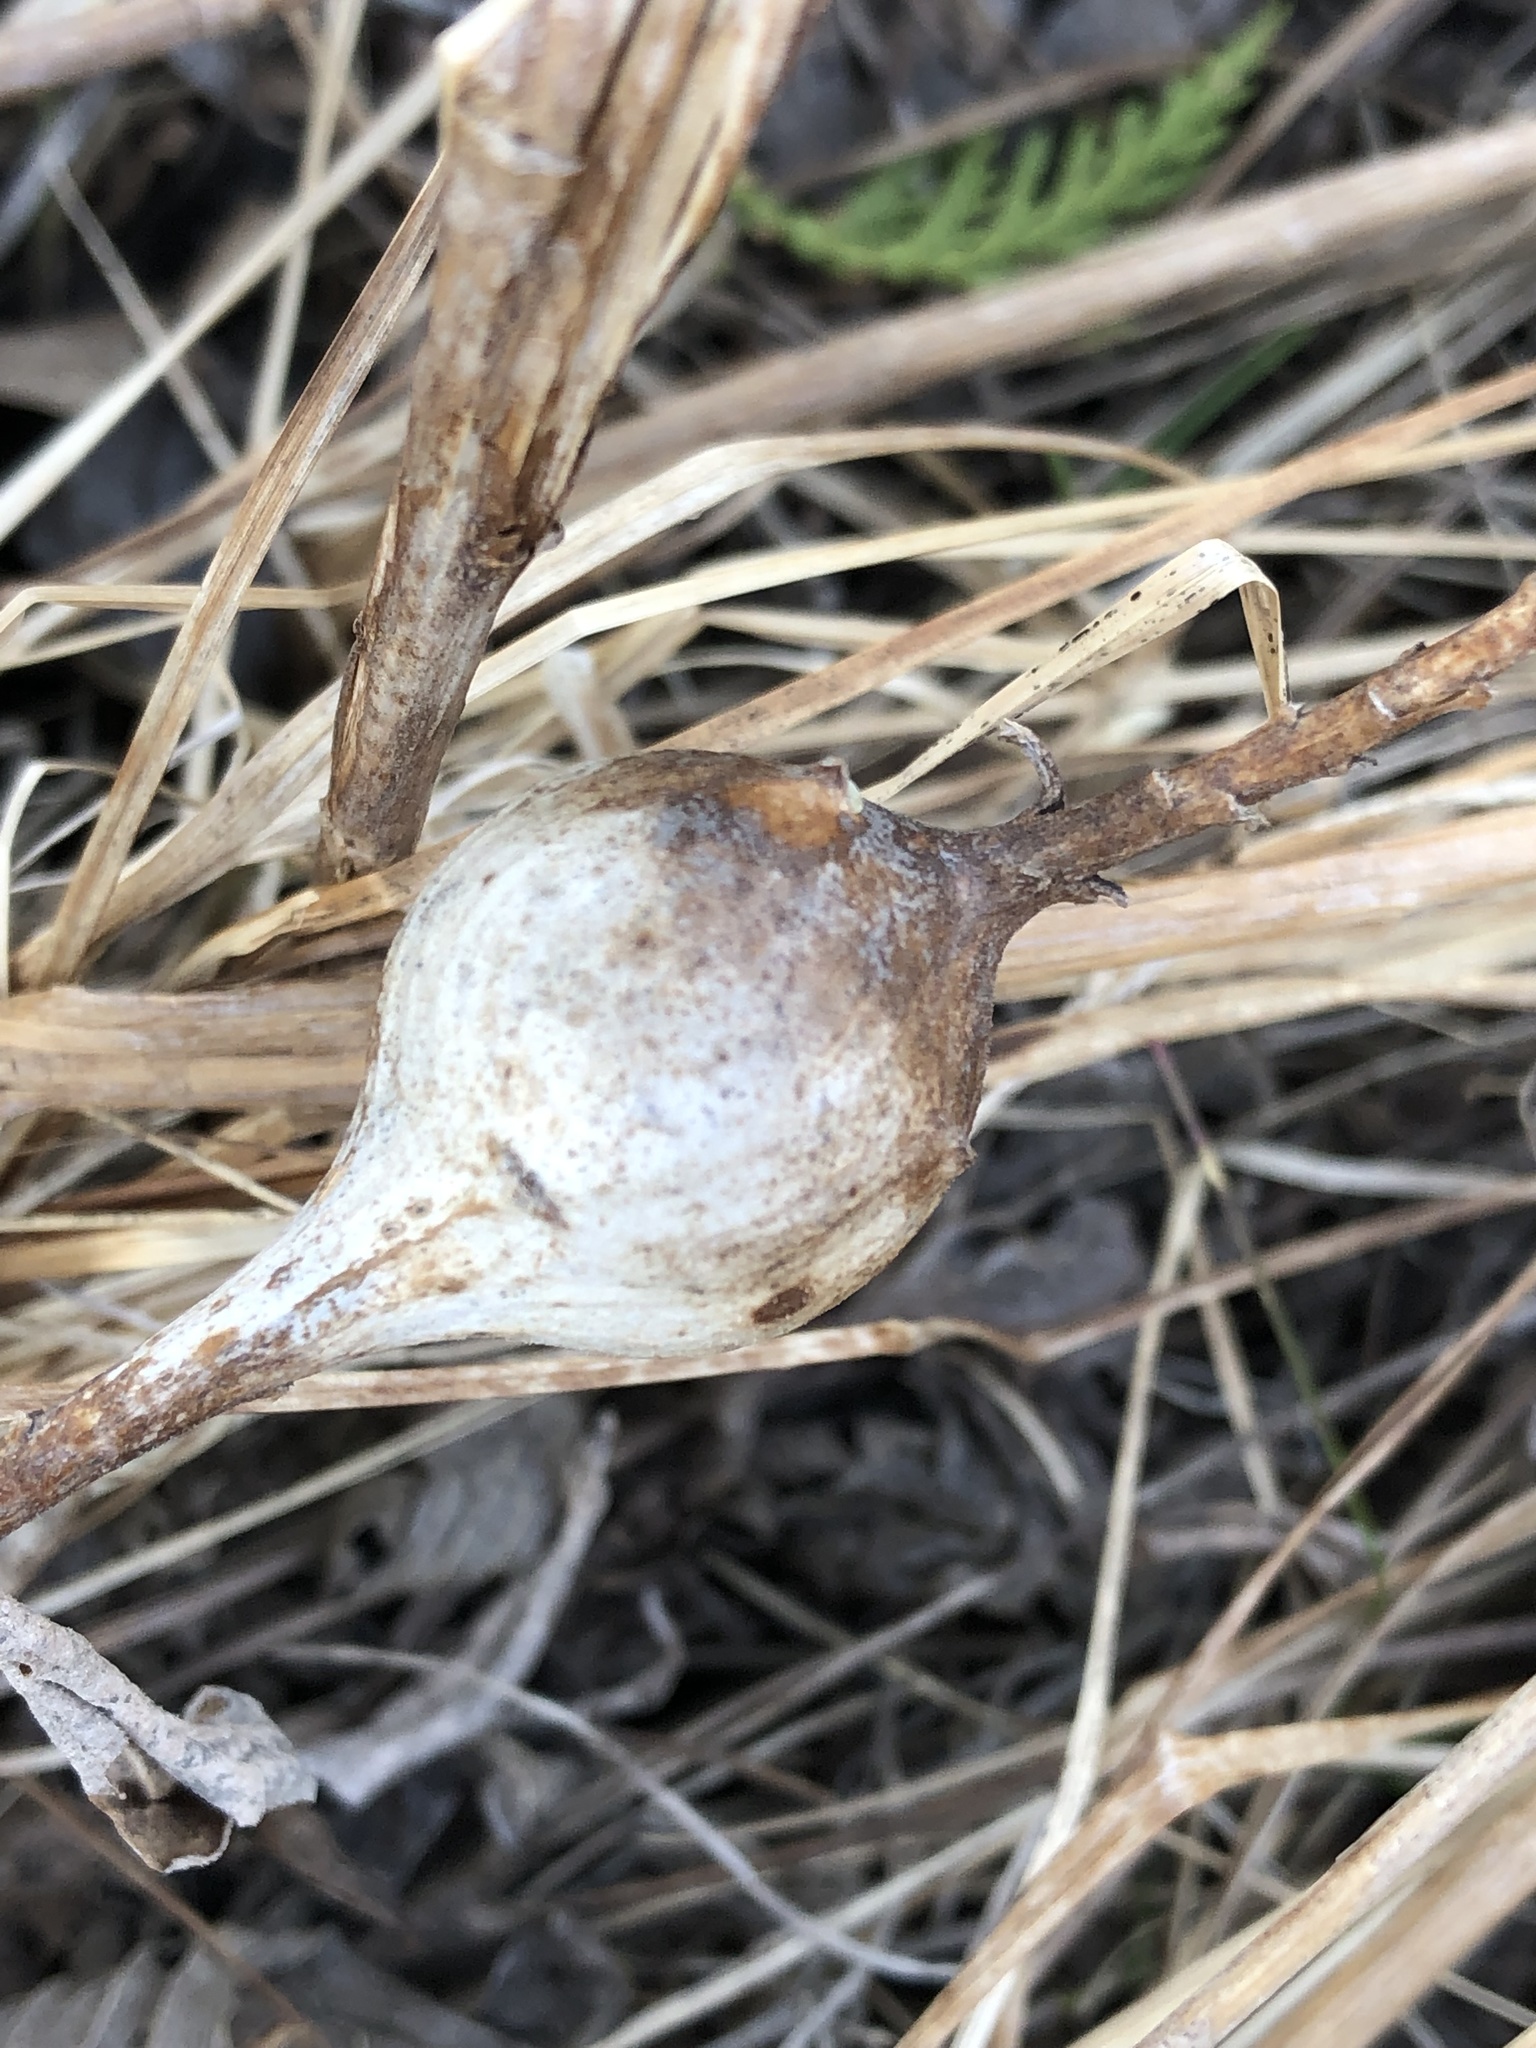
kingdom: Animalia
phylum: Arthropoda
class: Insecta
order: Diptera
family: Tephritidae
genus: Eurosta
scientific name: Eurosta solidaginis
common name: Goldenrod gall fly
